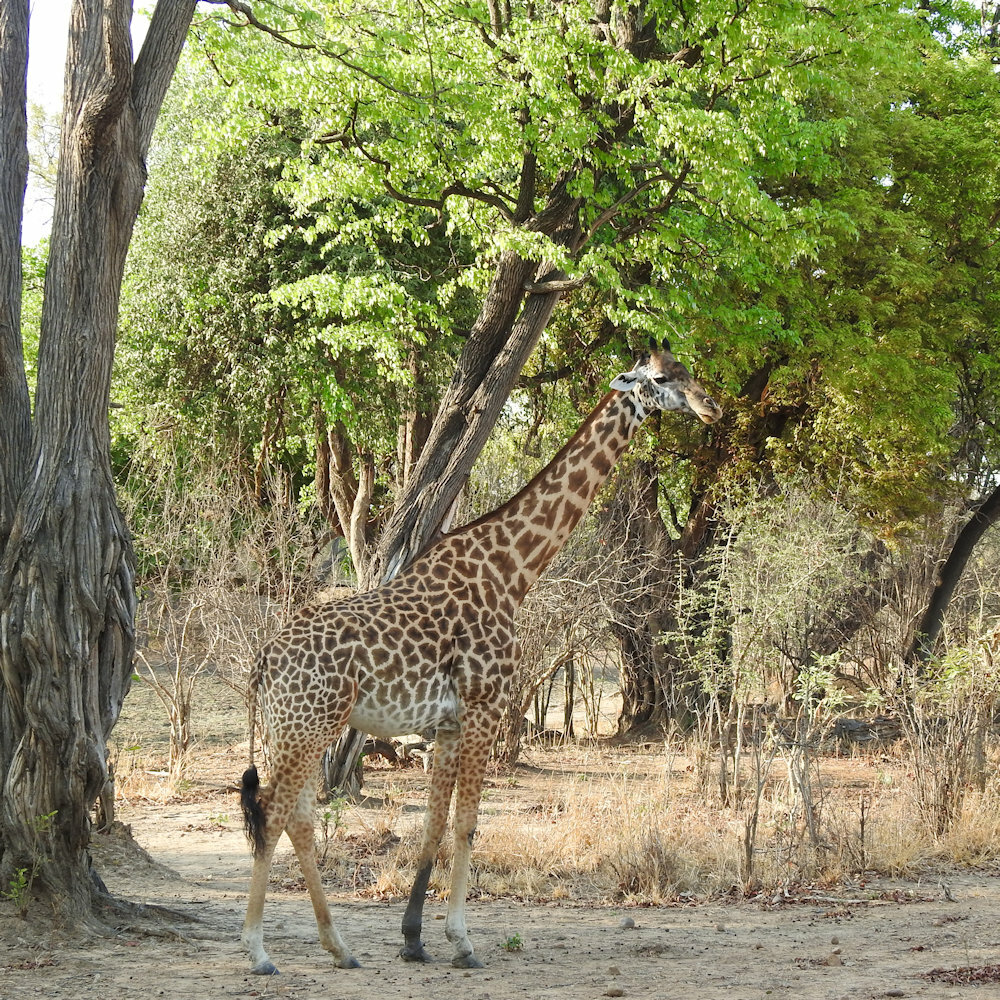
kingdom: Animalia
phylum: Chordata
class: Mammalia
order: Artiodactyla
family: Giraffidae
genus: Giraffa
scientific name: Giraffa tippelskirchi
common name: Masai giraffe
